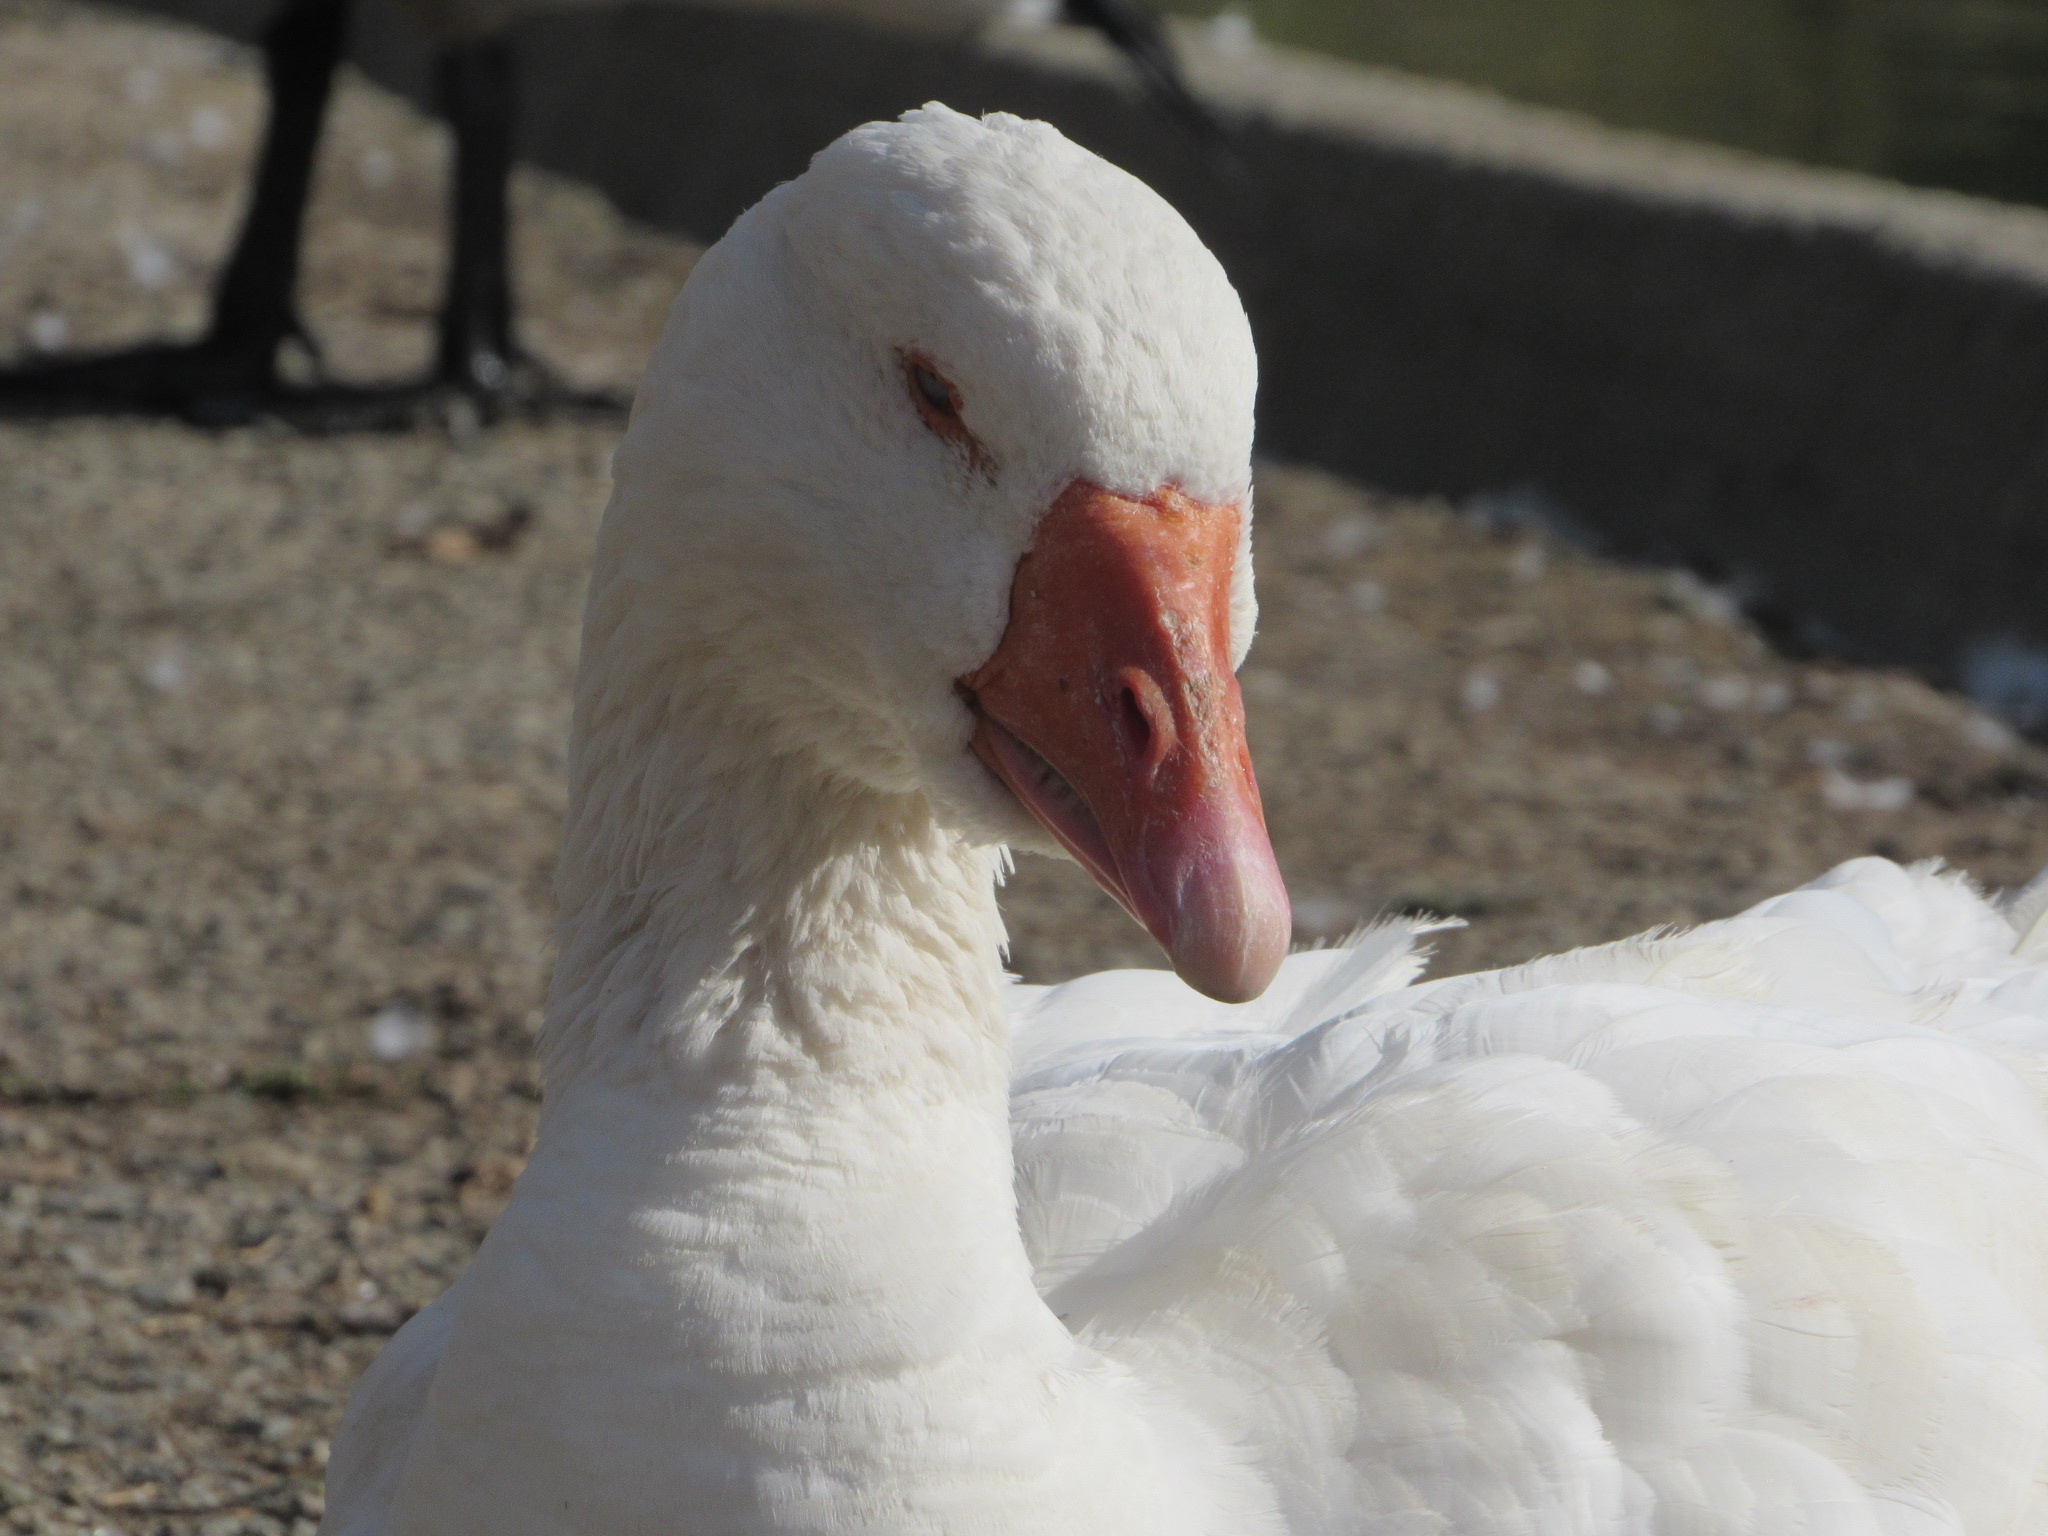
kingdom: Animalia
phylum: Chordata
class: Aves
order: Anseriformes
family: Anatidae
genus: Anser
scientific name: Anser anser
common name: Greylag goose
